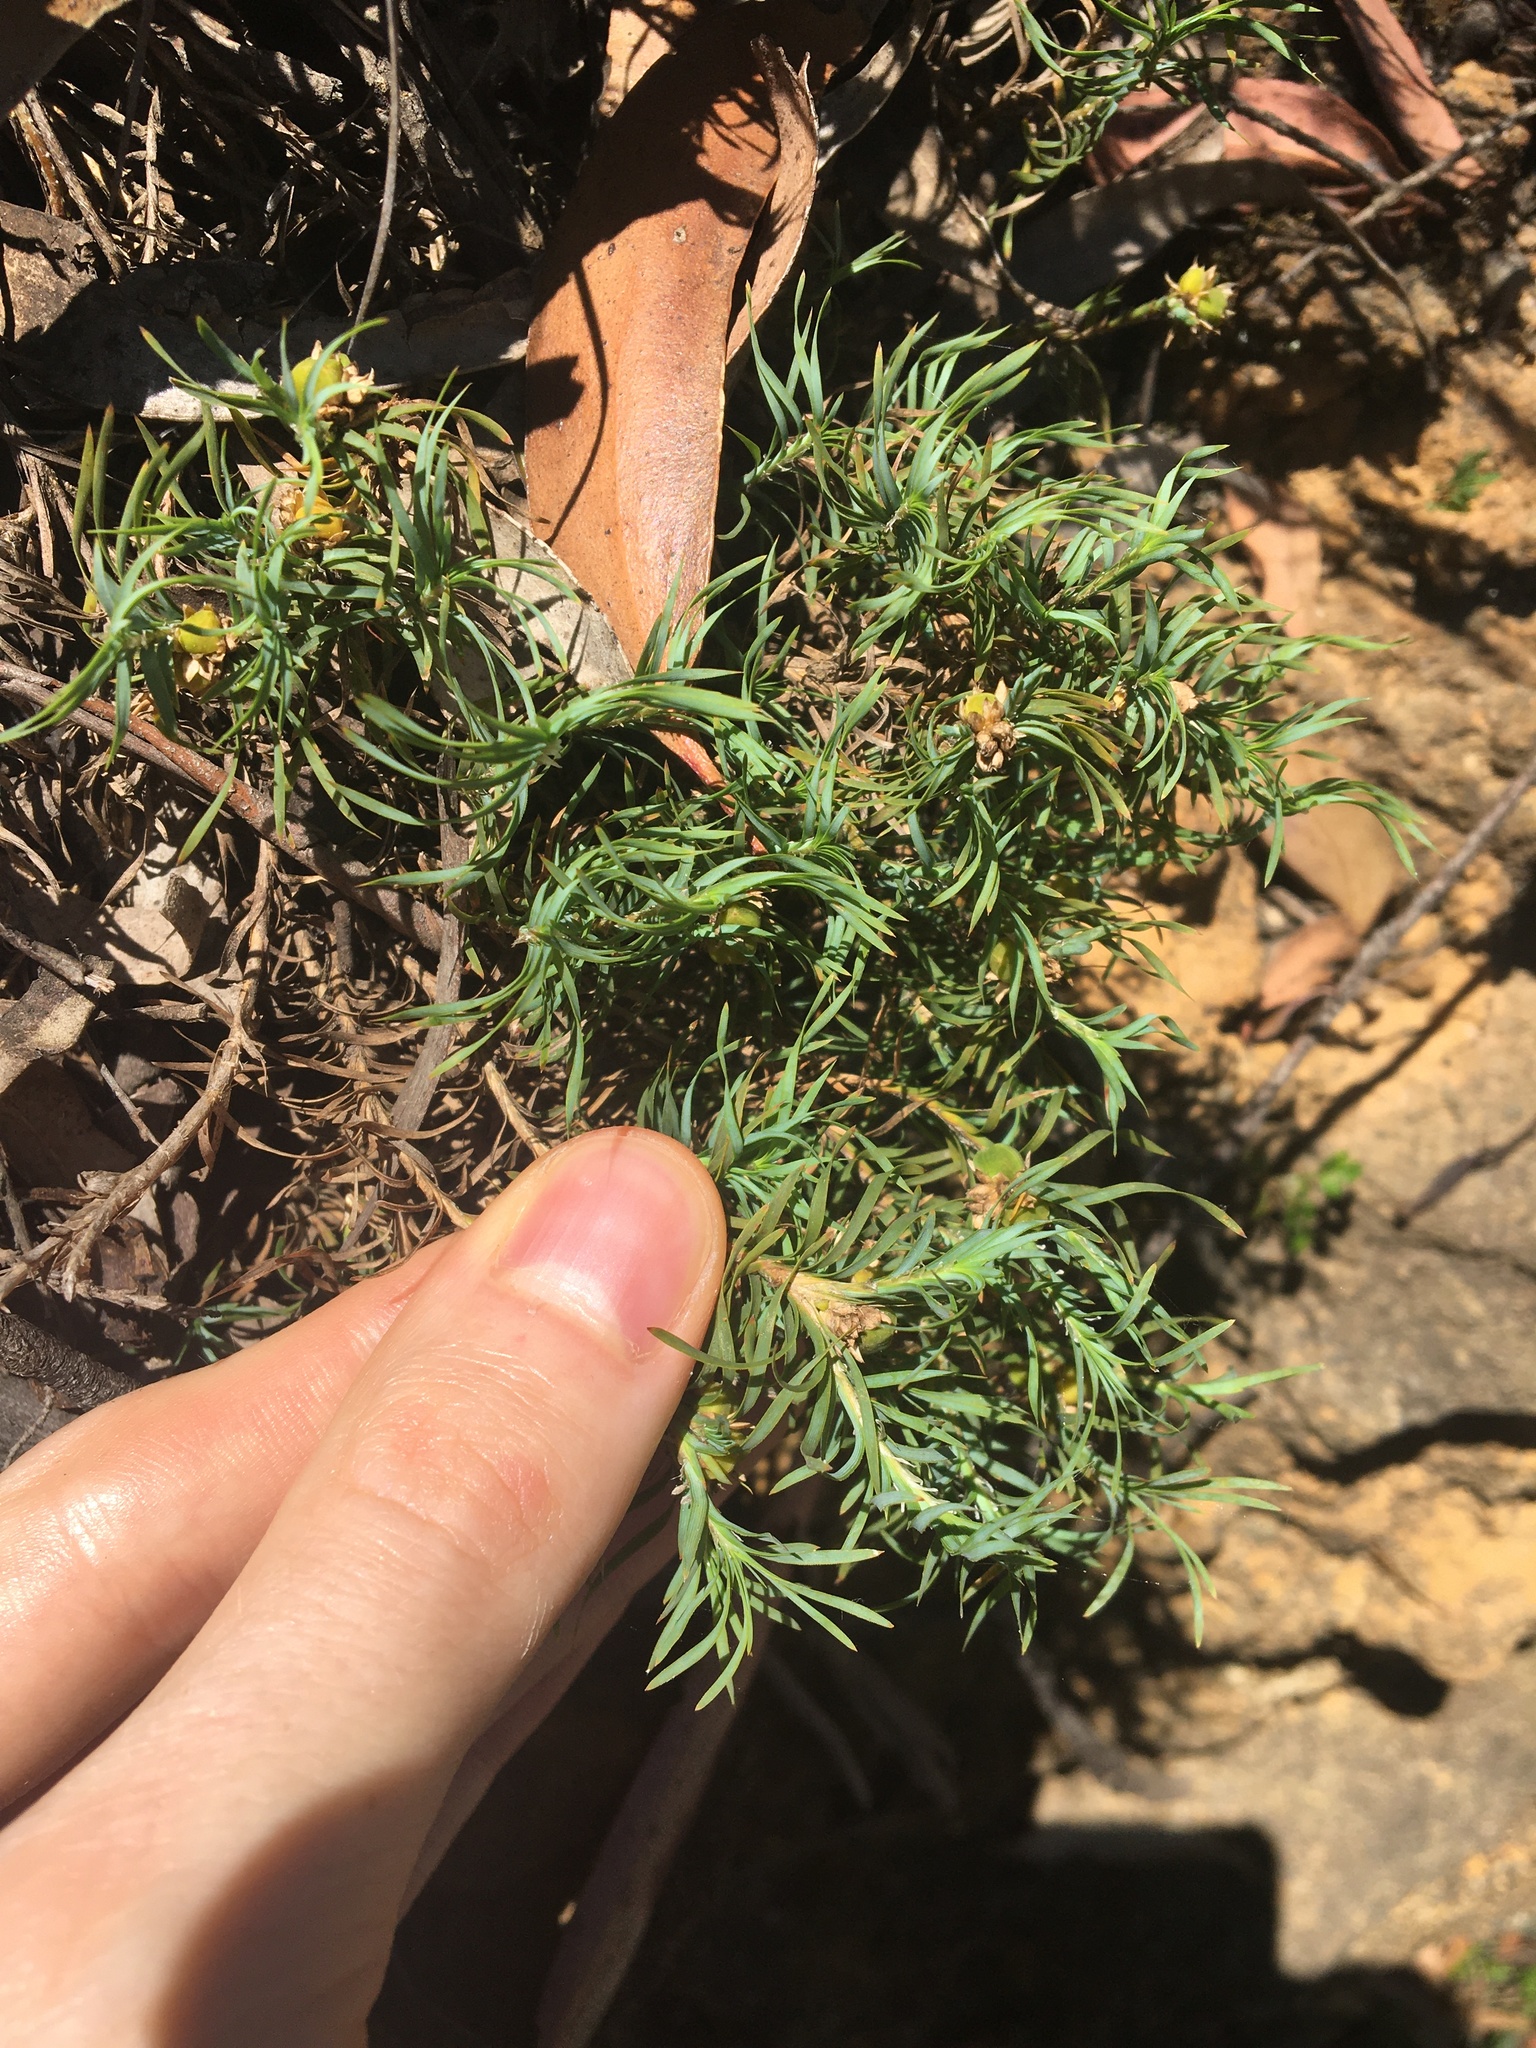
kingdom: Plantae
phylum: Tracheophyta
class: Liliopsida
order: Asparagales
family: Asparagaceae
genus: Lomandra
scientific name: Lomandra obliqua
